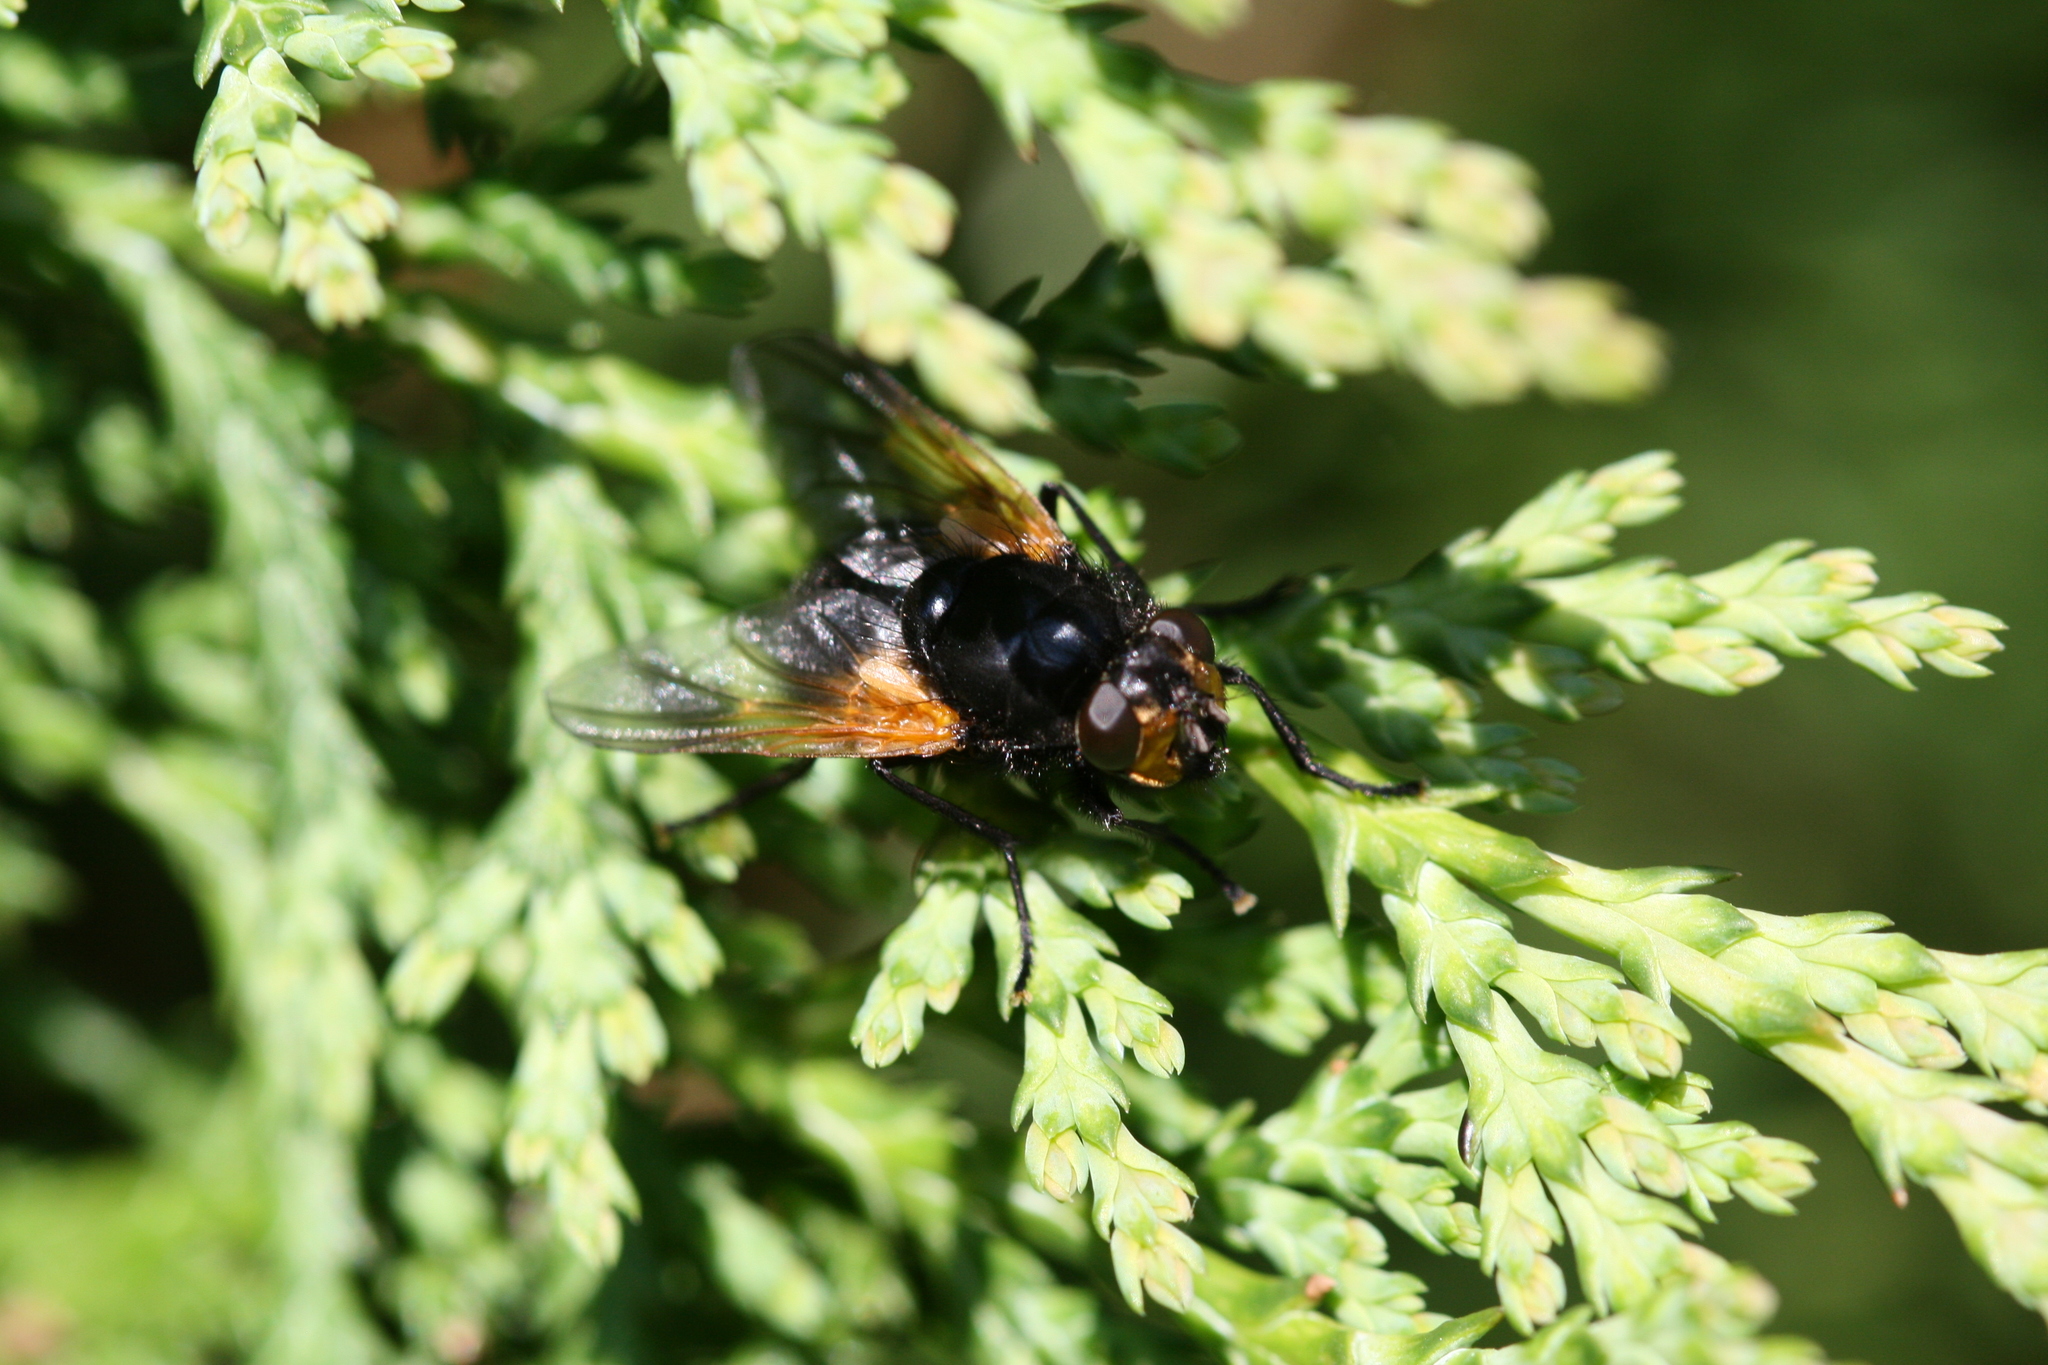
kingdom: Animalia
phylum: Arthropoda
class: Insecta
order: Diptera
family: Muscidae
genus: Mesembrina
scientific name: Mesembrina meridiana
